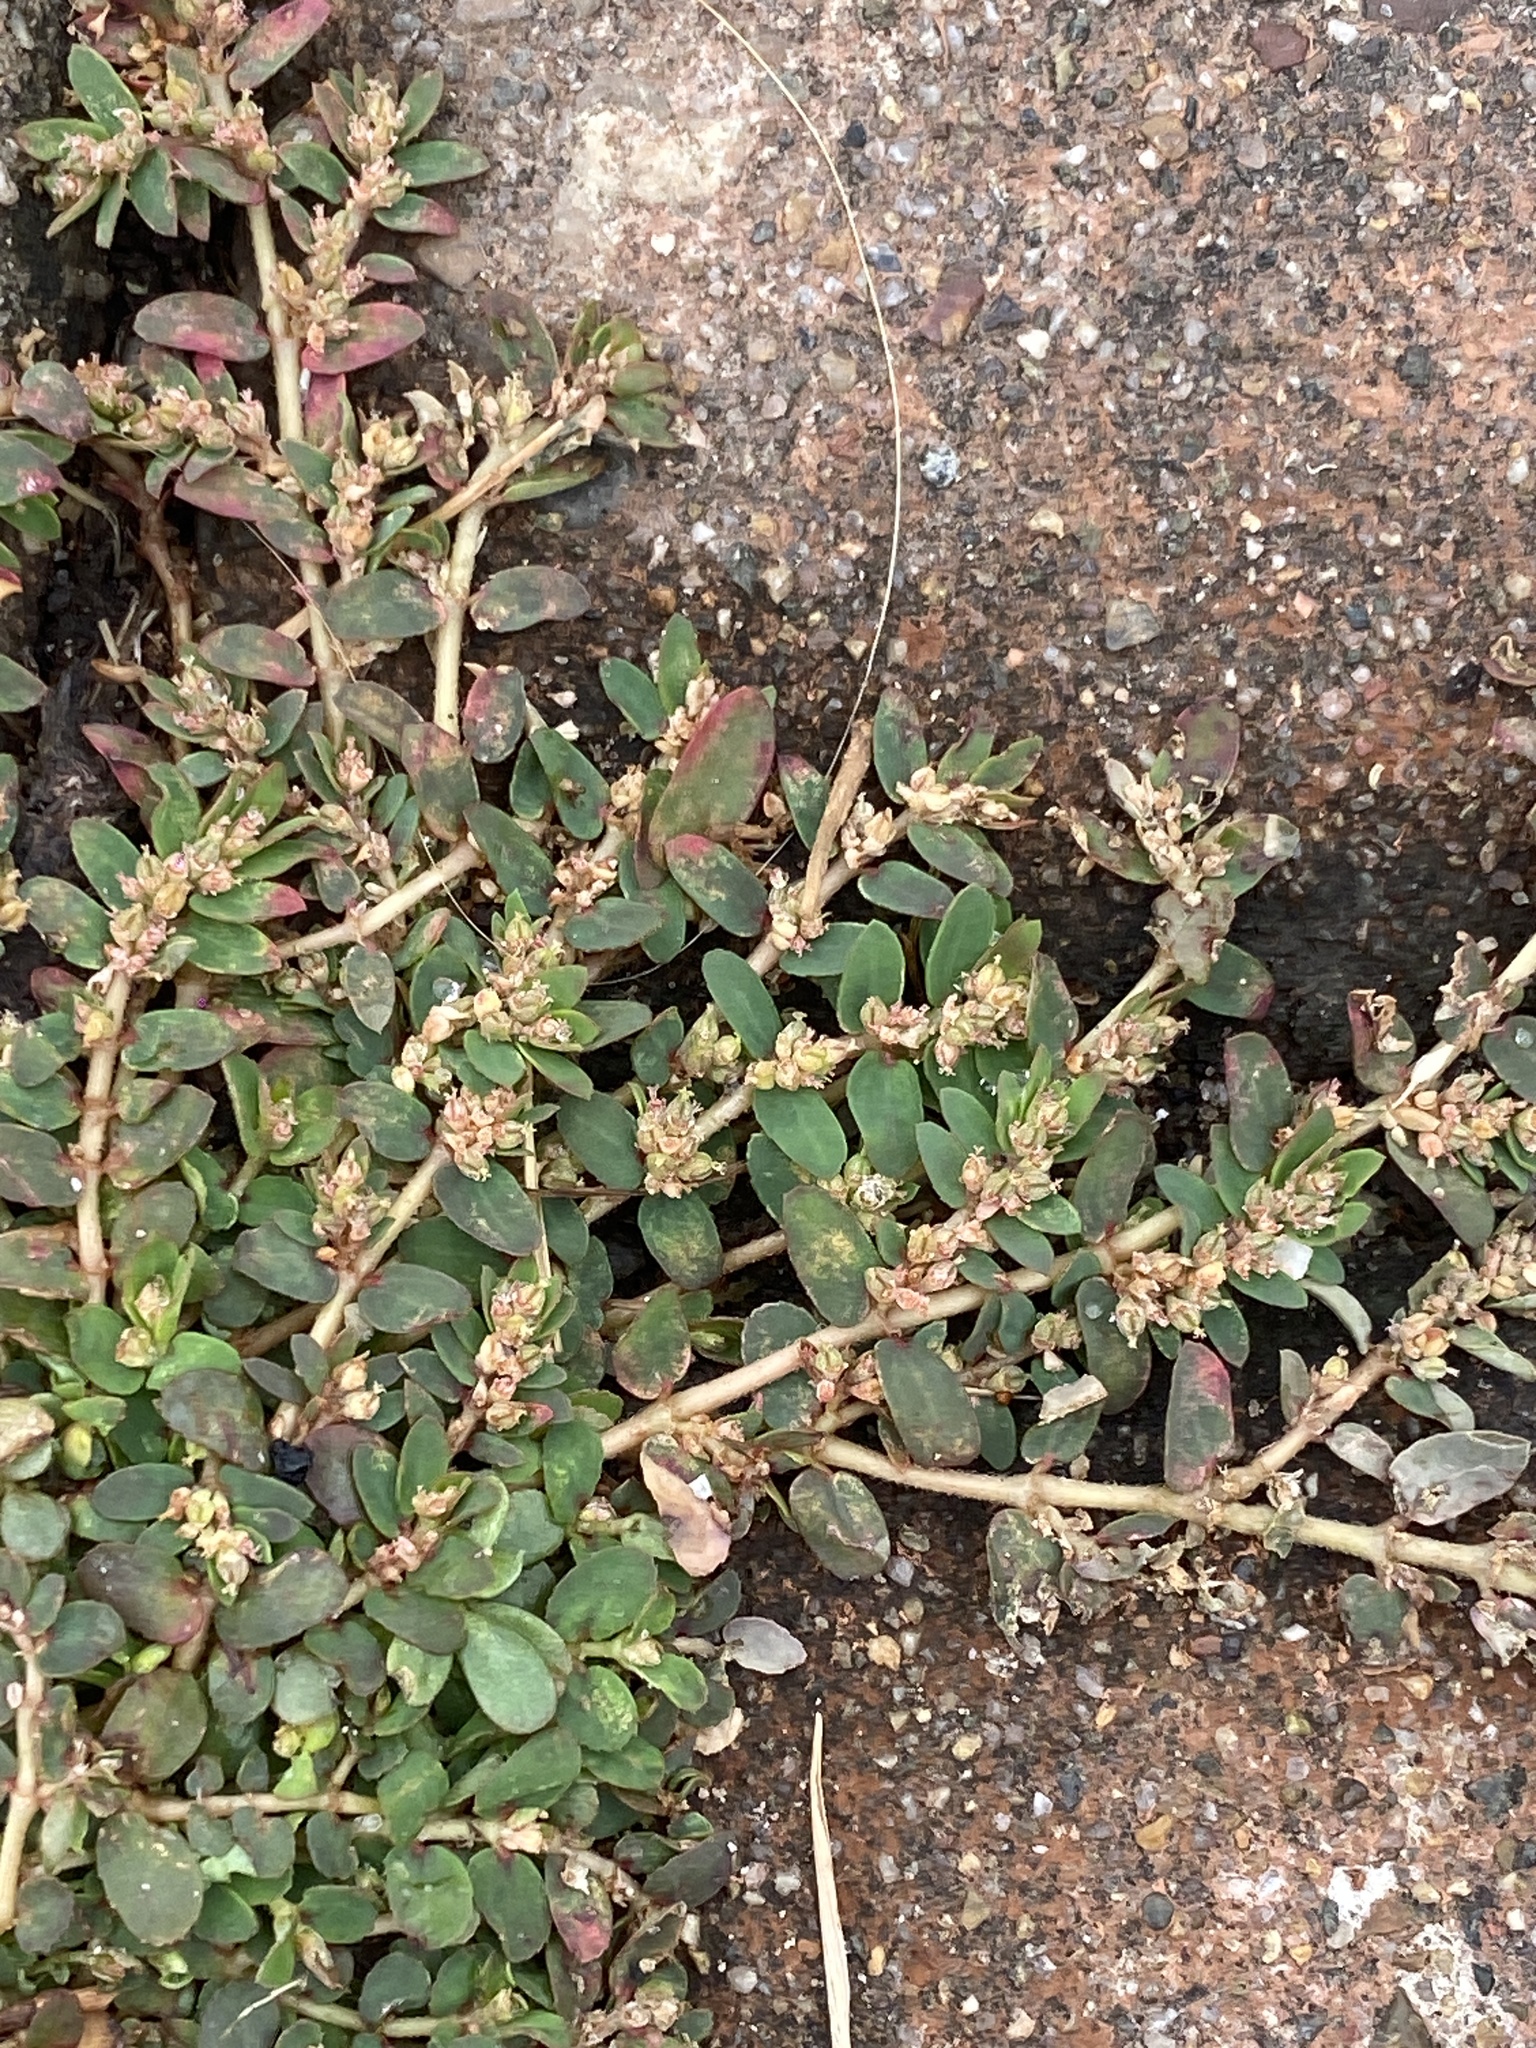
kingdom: Plantae
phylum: Tracheophyta
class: Magnoliopsida
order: Malpighiales
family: Euphorbiaceae
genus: Euphorbia
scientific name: Euphorbia thymifolia
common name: Gulf sandmat
